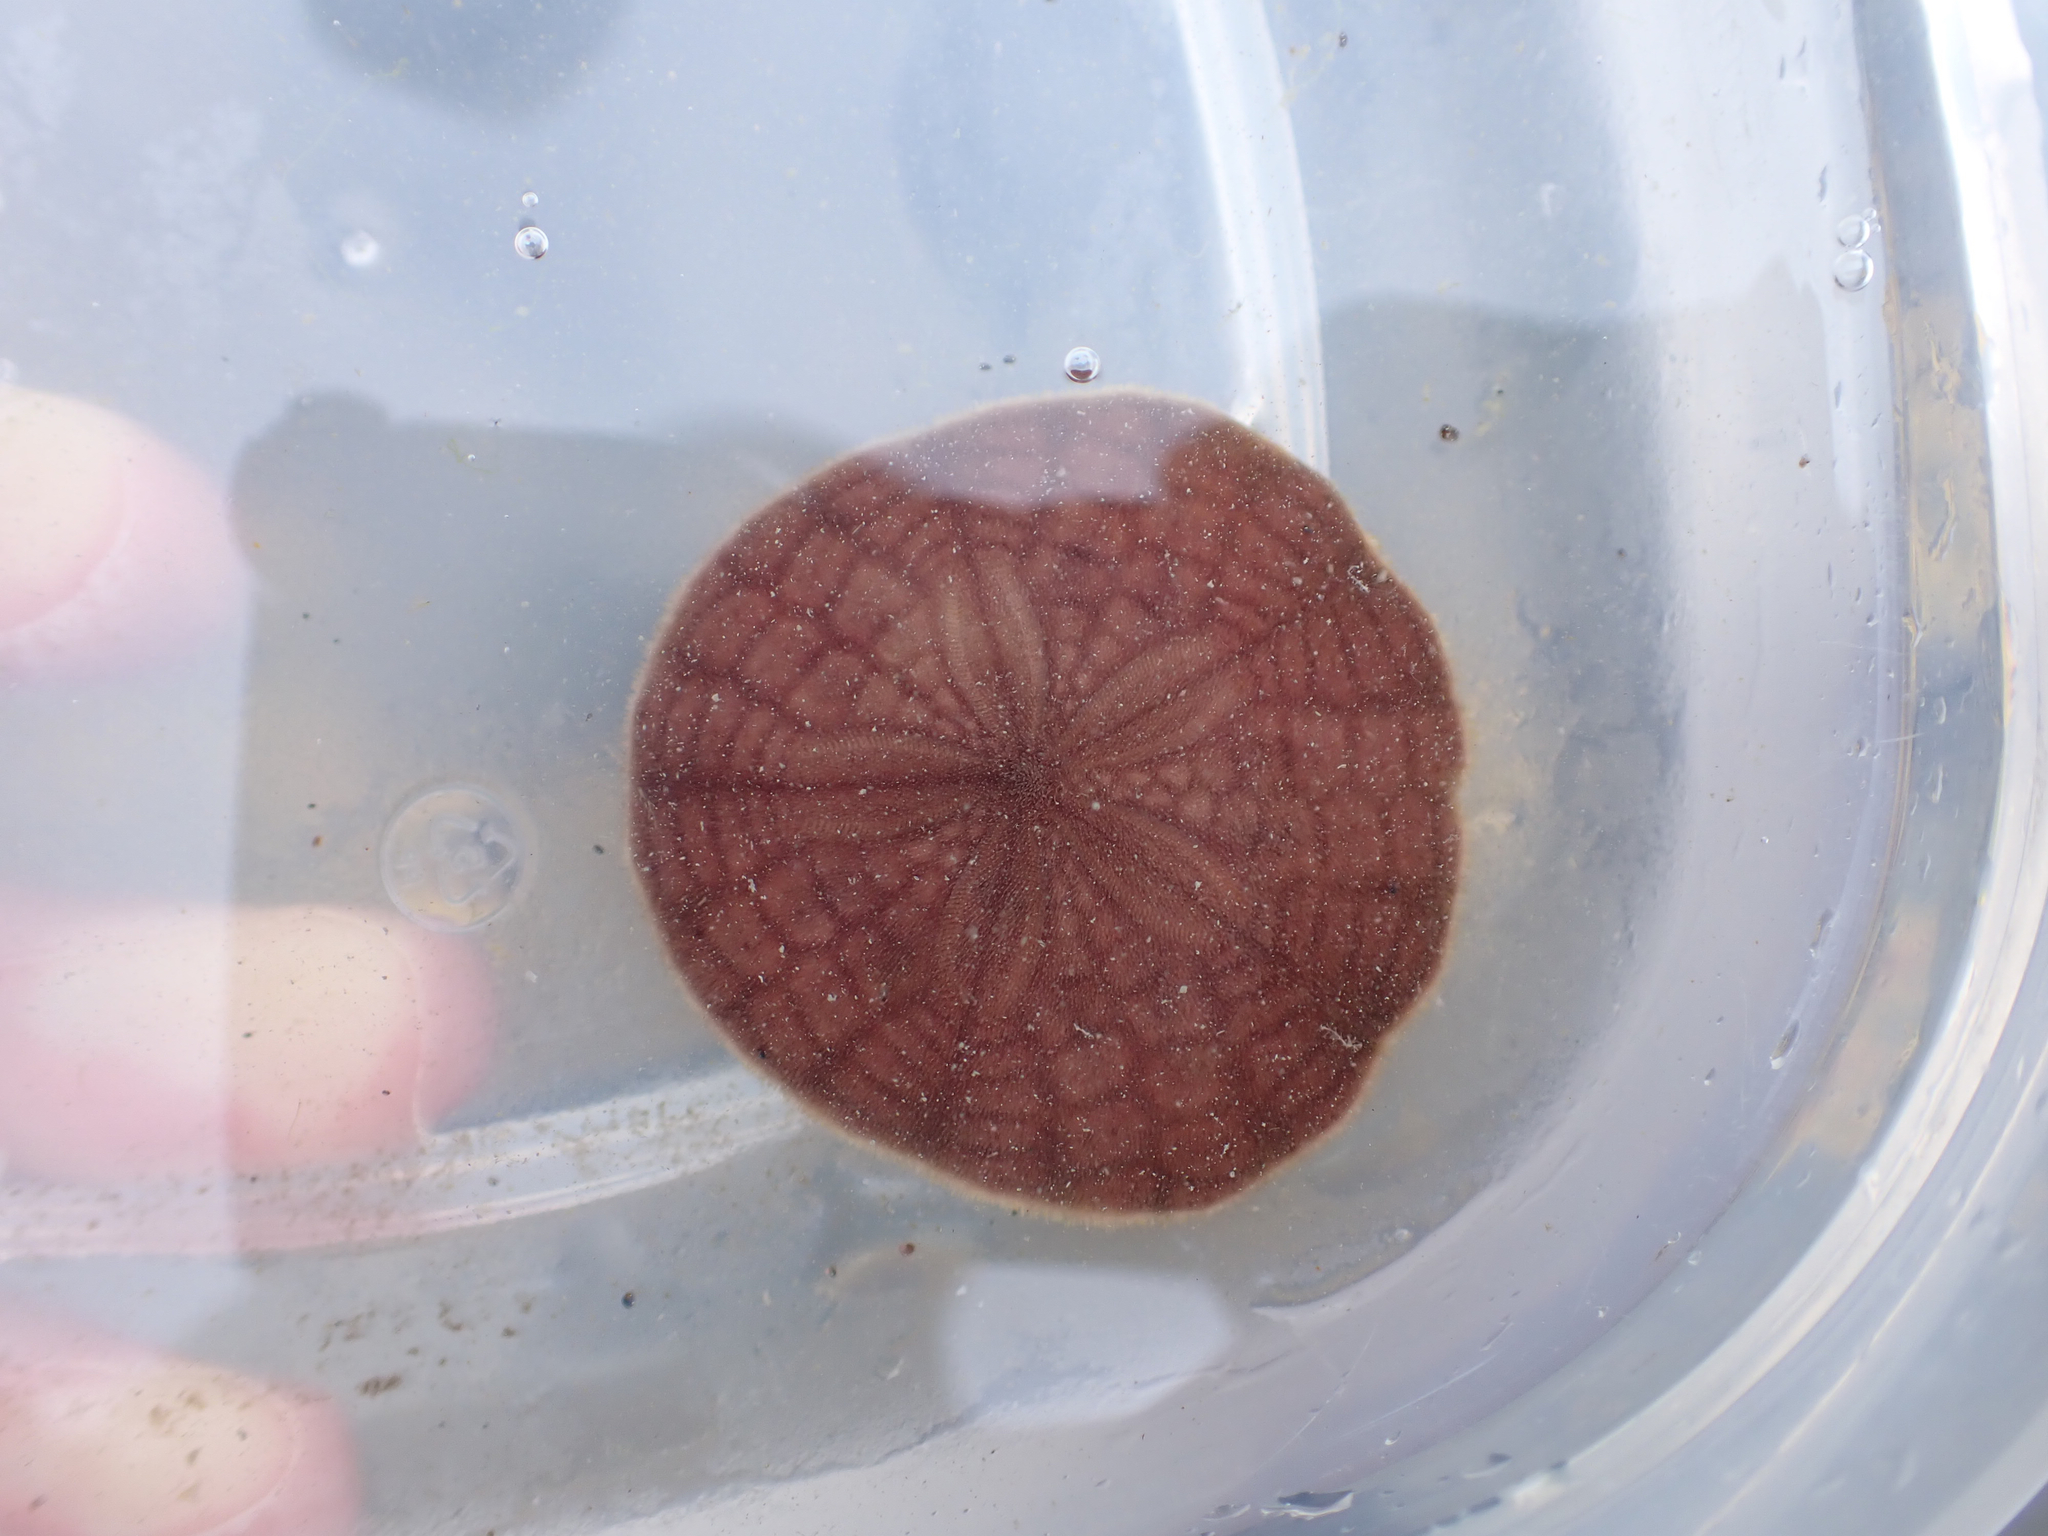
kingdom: Animalia
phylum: Echinodermata
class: Echinoidea
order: Echinolampadacea
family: Echinarachniidae
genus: Echinarachnius
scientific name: Echinarachnius parma
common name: Common sand dollar
